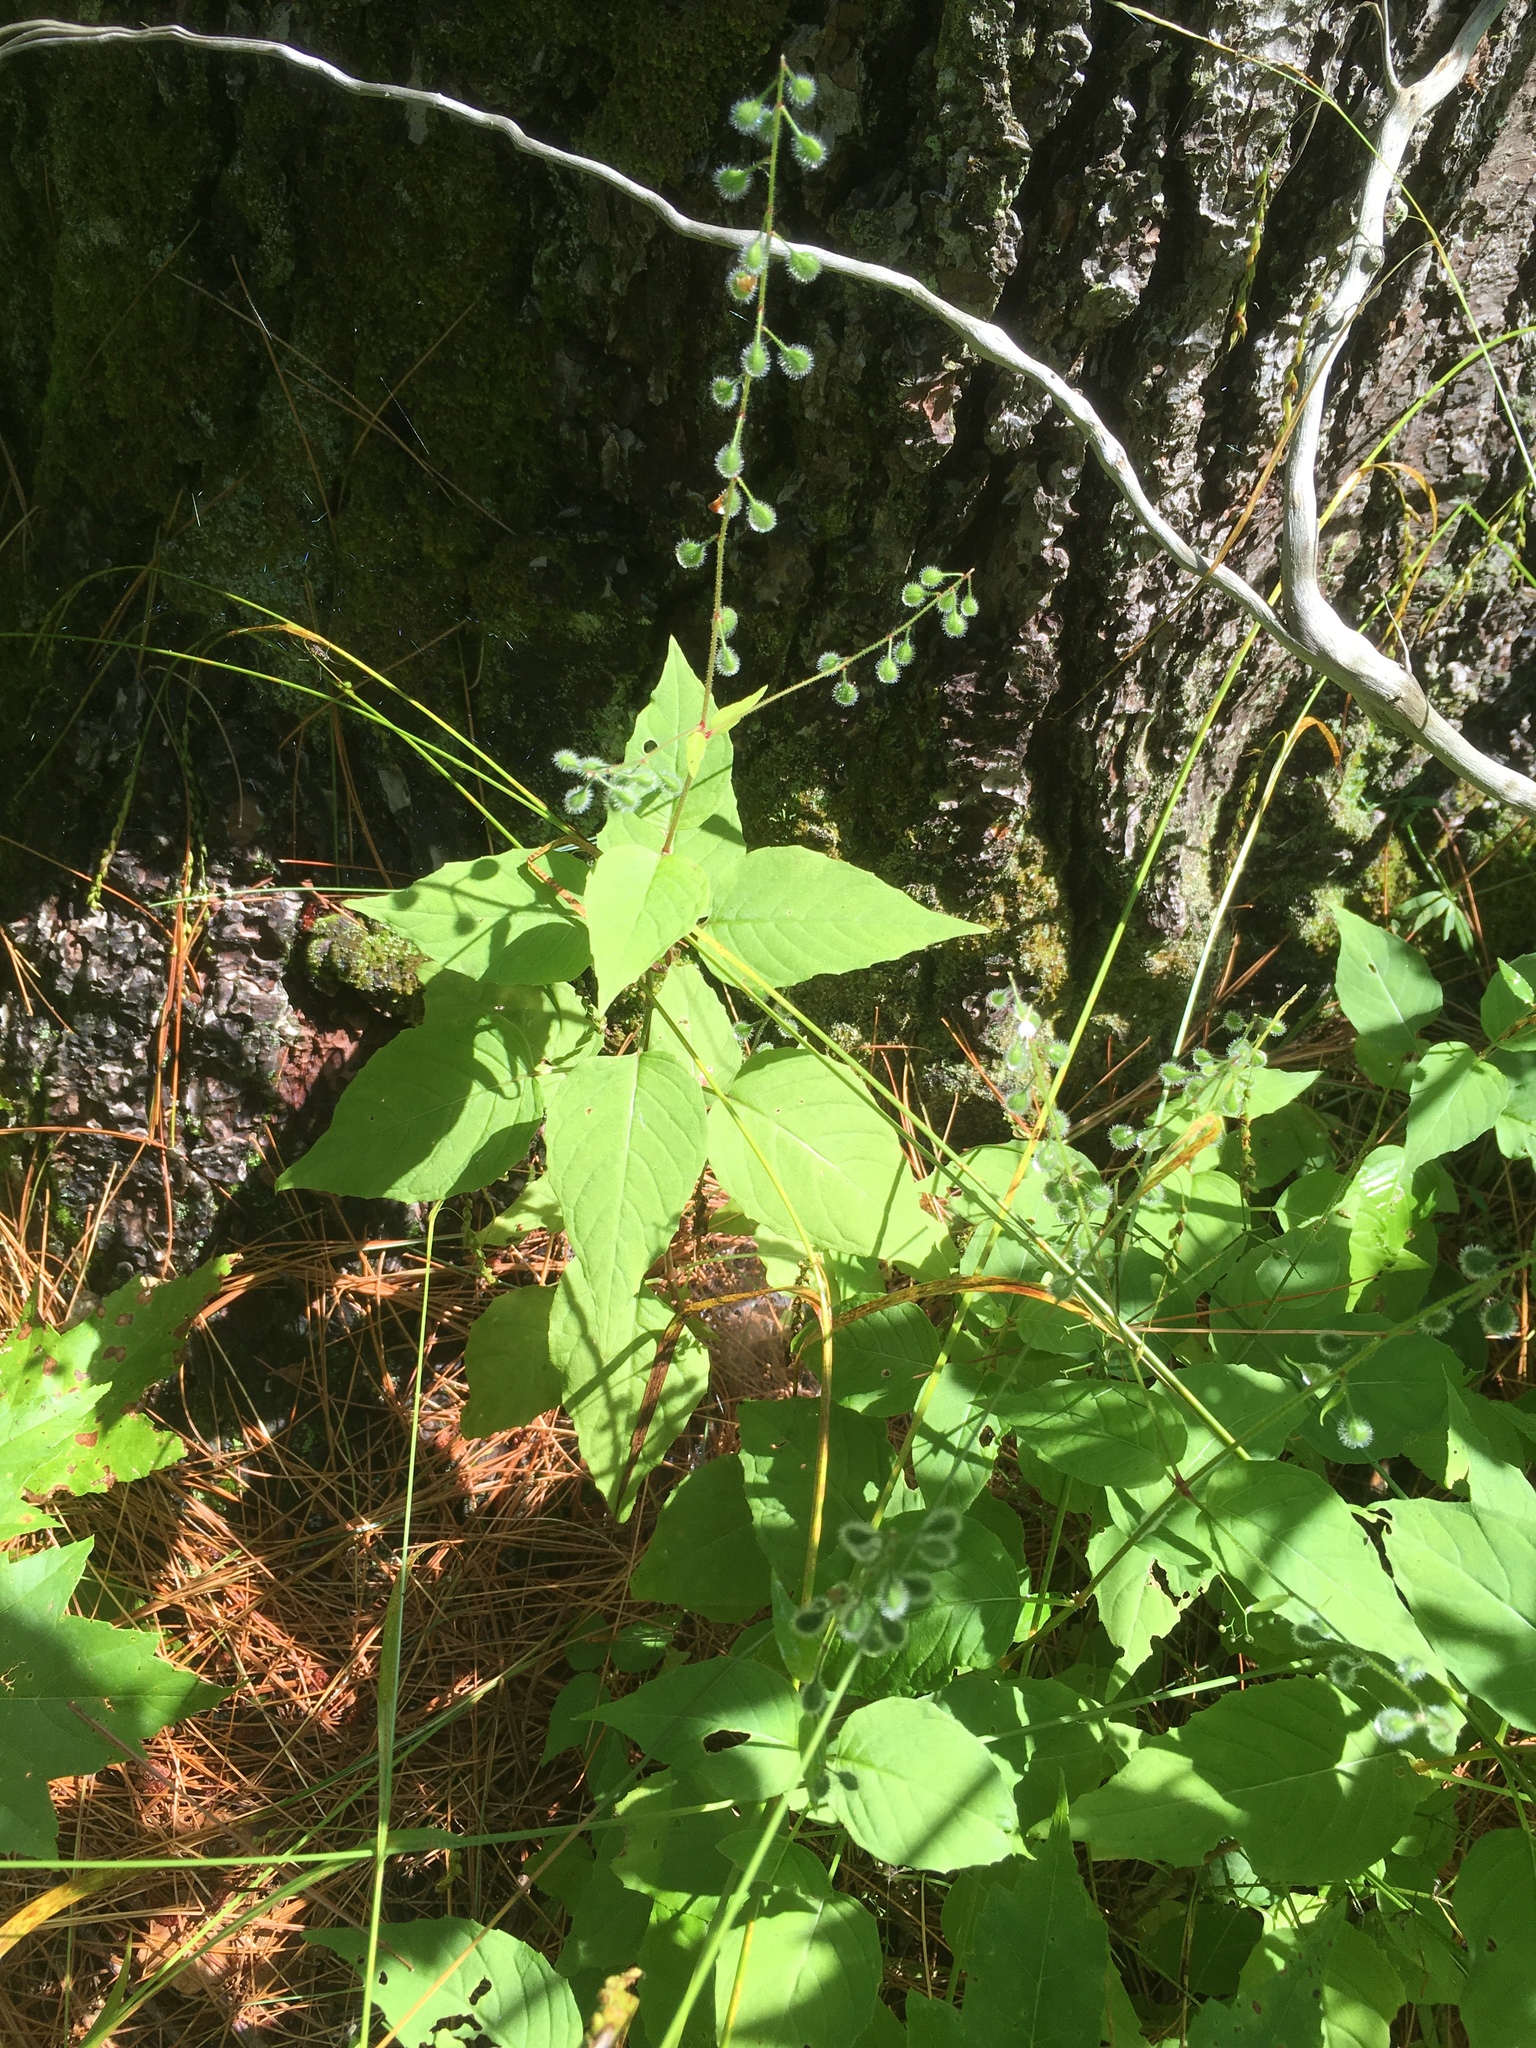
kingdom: Plantae
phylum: Tracheophyta
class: Magnoliopsida
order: Myrtales
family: Onagraceae
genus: Circaea
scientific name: Circaea canadensis
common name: Broad-leaved enchanter's nightshade
